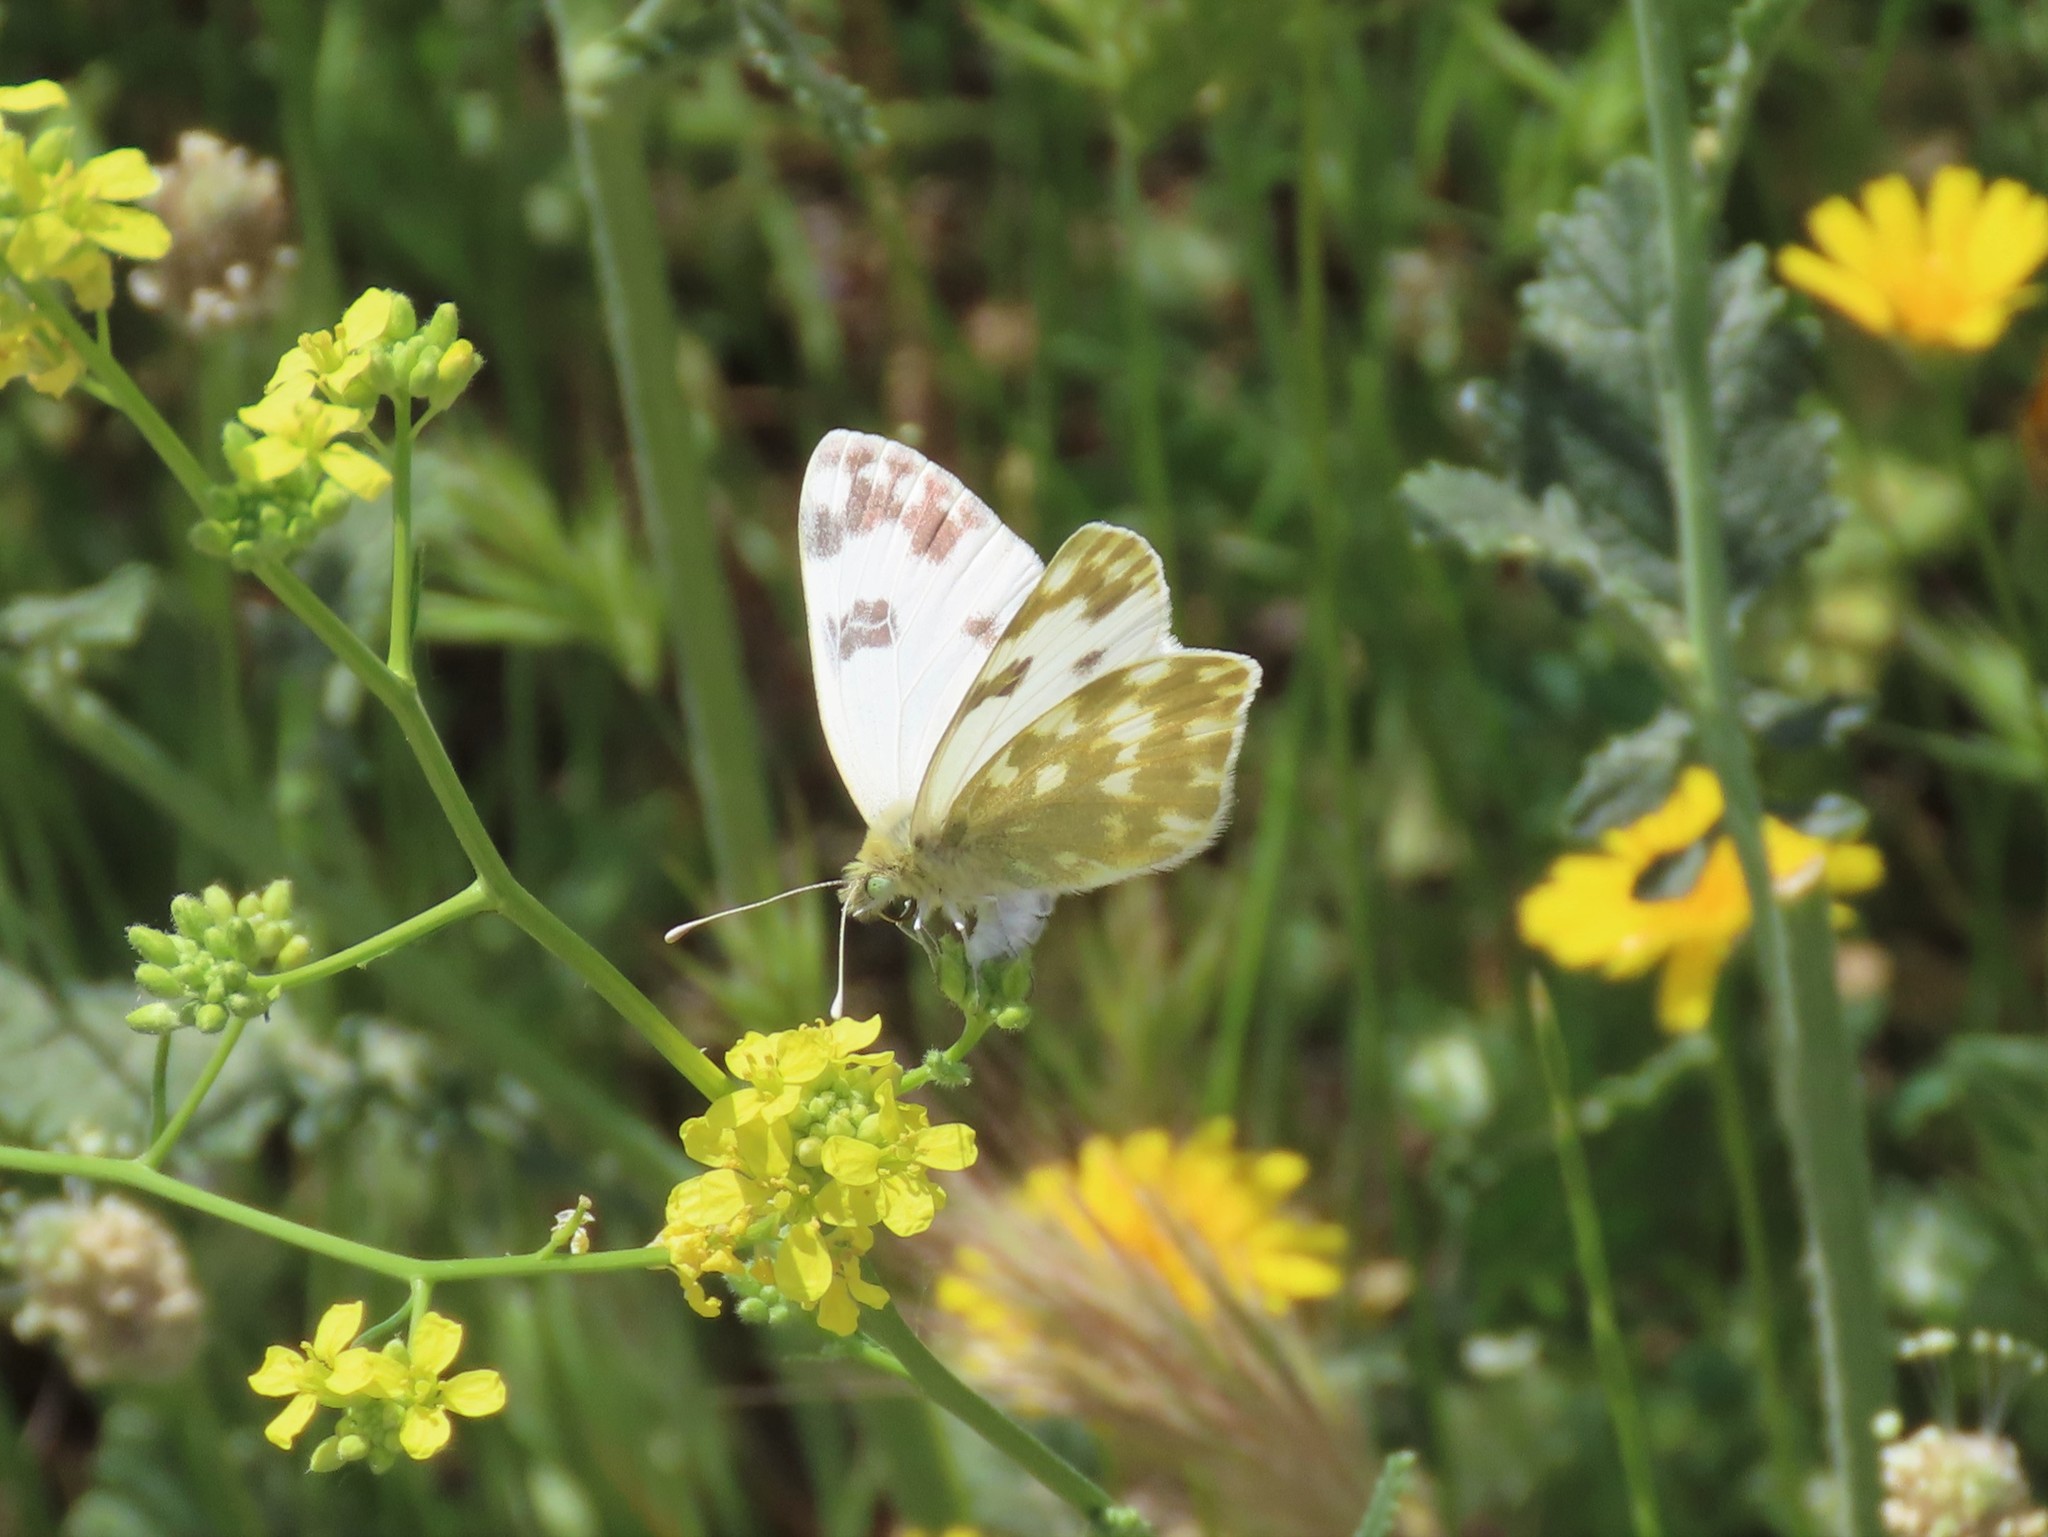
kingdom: Animalia
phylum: Arthropoda
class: Insecta
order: Lepidoptera
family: Pieridae
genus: Pontia
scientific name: Pontia daplidice
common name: Bath white
